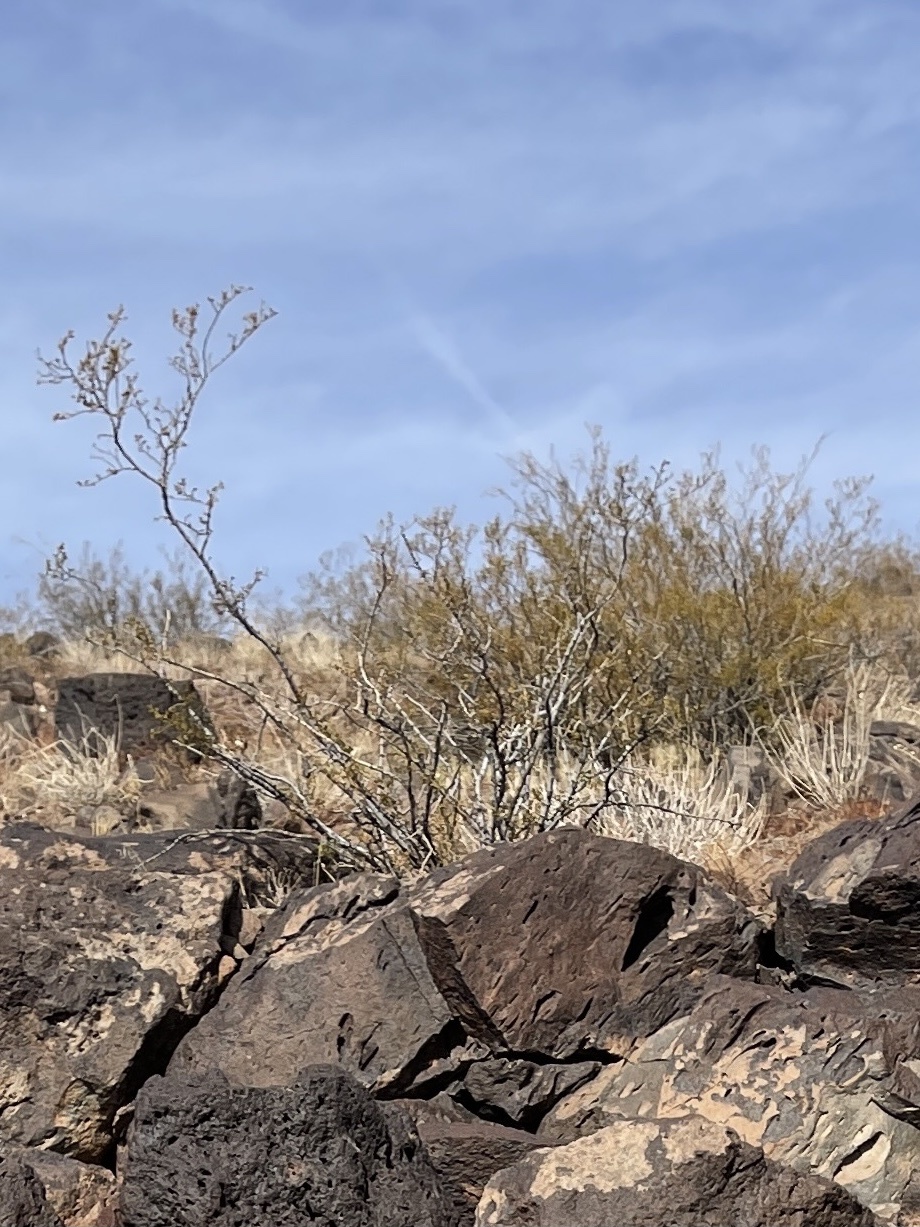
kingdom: Plantae
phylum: Tracheophyta
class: Magnoliopsida
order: Zygophyllales
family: Zygophyllaceae
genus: Larrea
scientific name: Larrea tridentata
